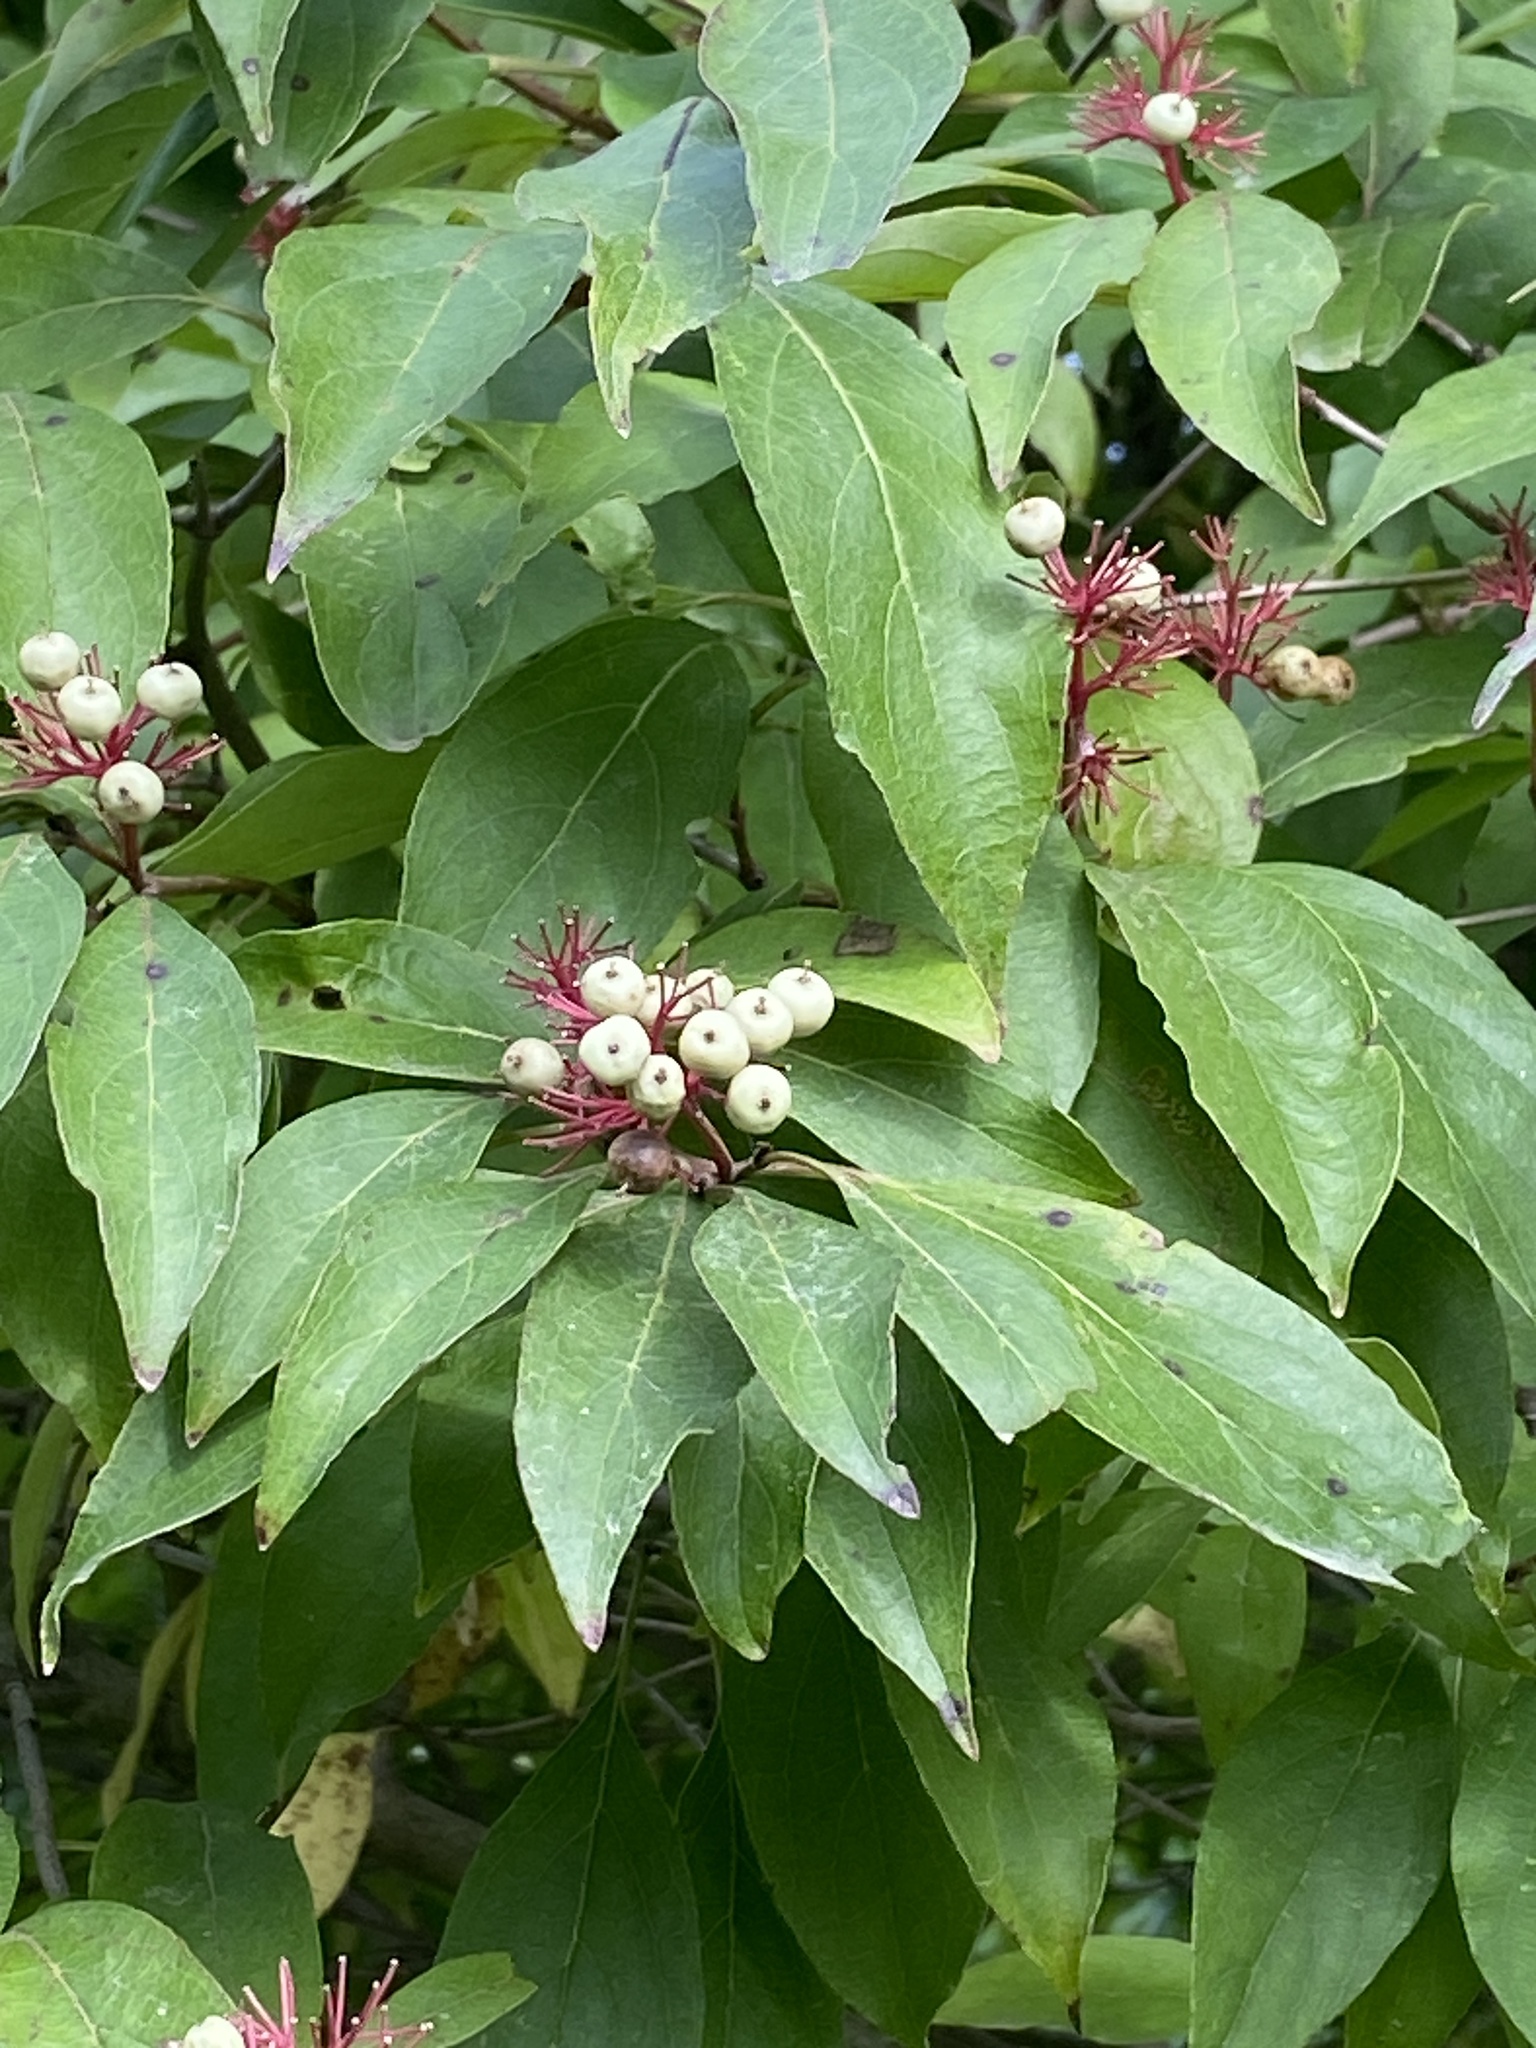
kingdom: Plantae
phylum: Tracheophyta
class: Magnoliopsida
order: Cornales
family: Cornaceae
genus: Cornus
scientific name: Cornus racemosa
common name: Panicled dogwood
